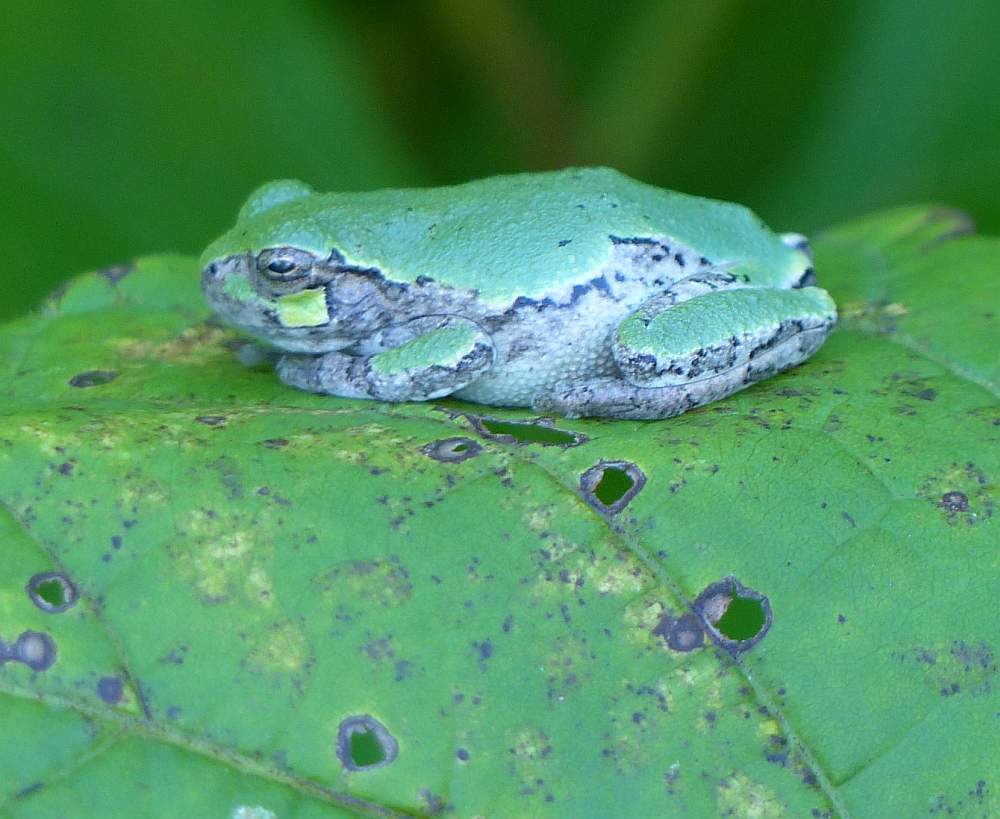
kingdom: Animalia
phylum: Chordata
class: Amphibia
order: Anura
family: Hylidae
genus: Dryophytes
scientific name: Dryophytes versicolor
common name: Gray treefrog
